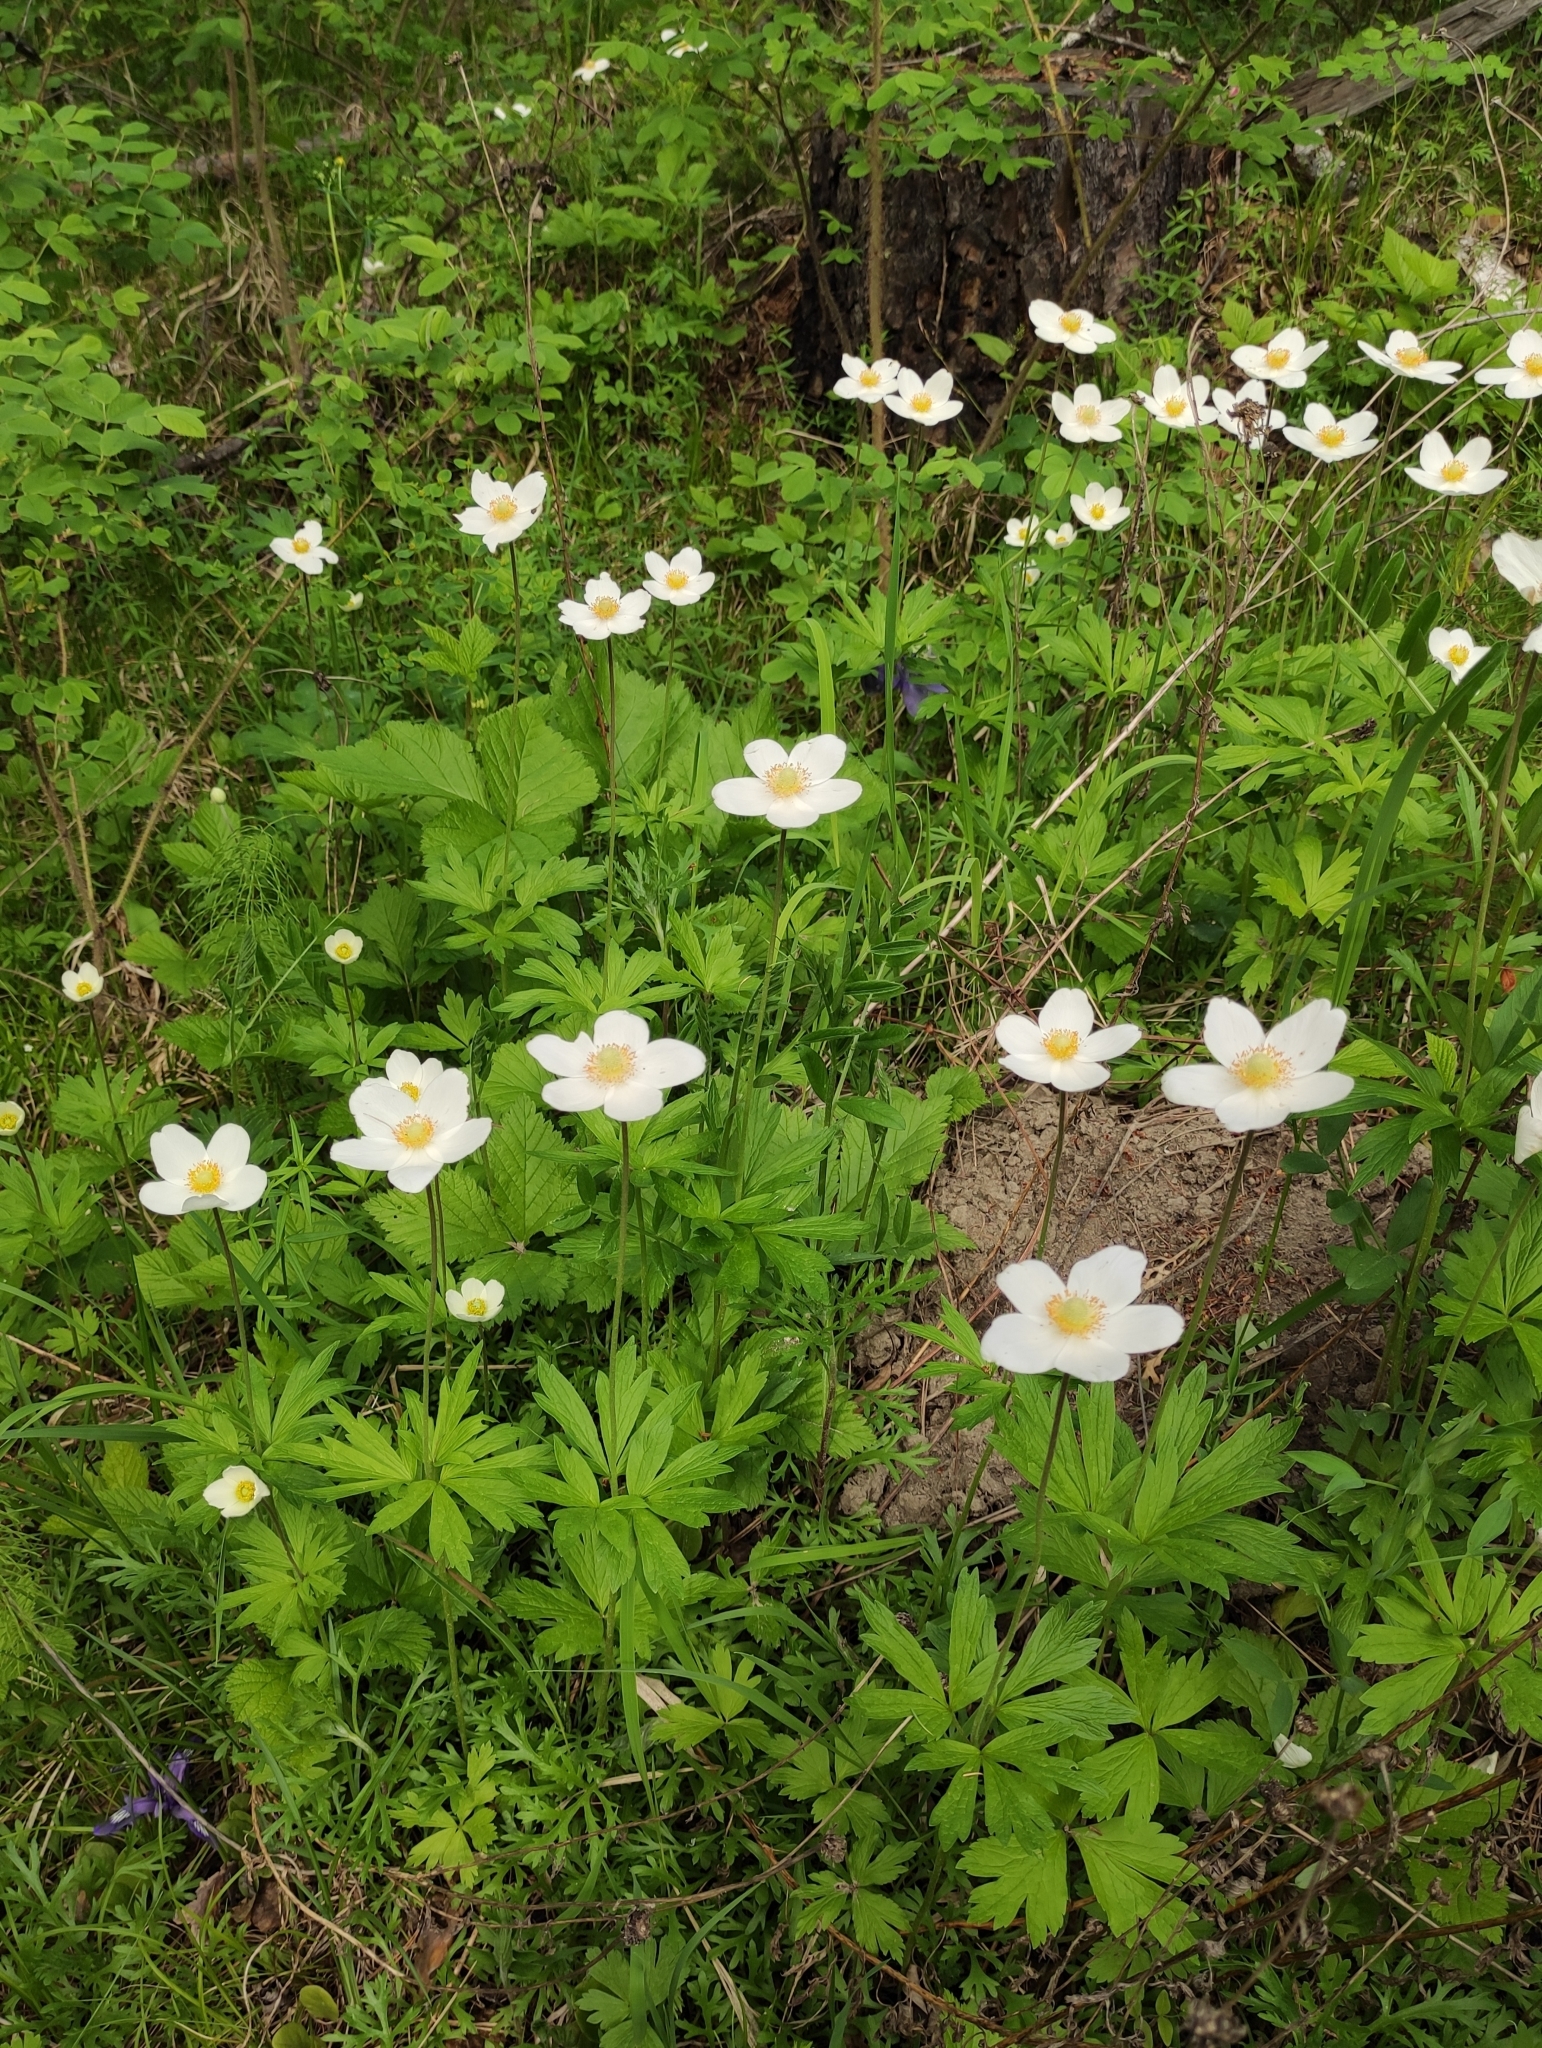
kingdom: Plantae
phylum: Tracheophyta
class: Magnoliopsida
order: Ranunculales
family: Ranunculaceae
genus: Anemone
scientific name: Anemone sylvestris
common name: Snowdrop anemone
